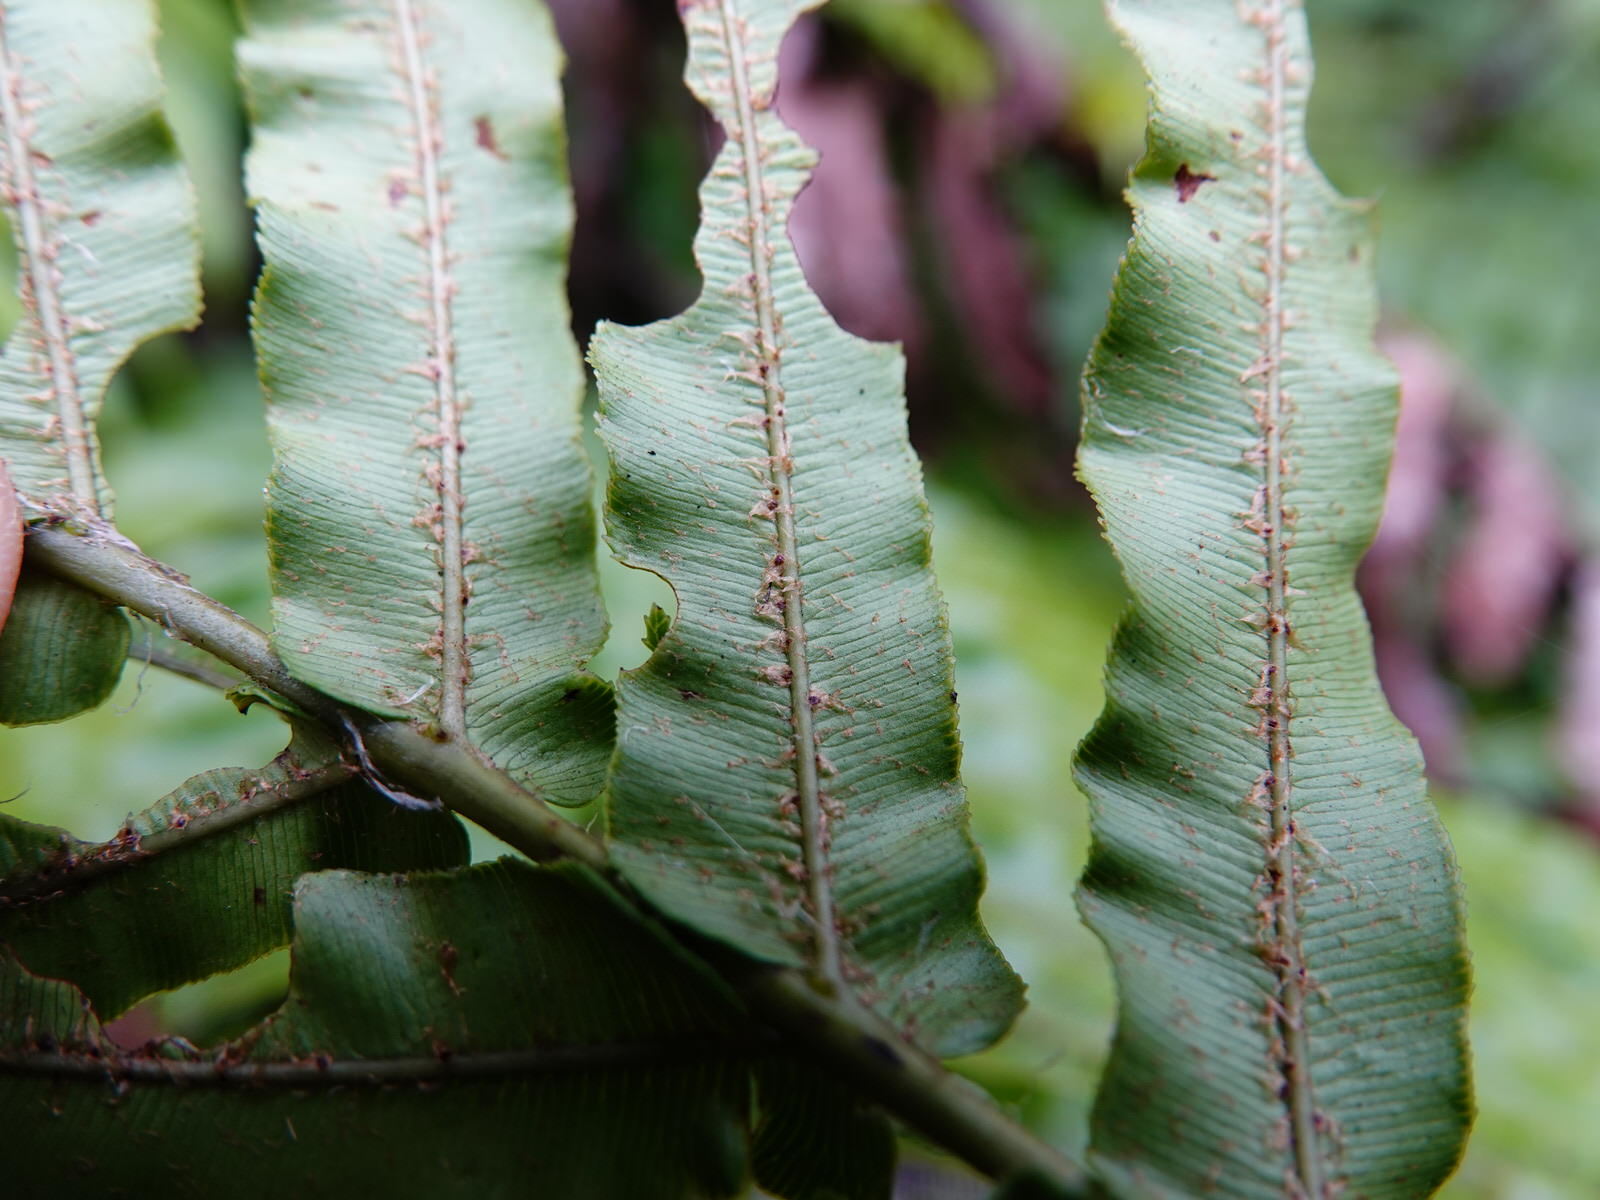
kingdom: Plantae
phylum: Tracheophyta
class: Polypodiopsida
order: Polypodiales
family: Blechnaceae
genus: Parablechnum
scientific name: Parablechnum novae-zelandiae
